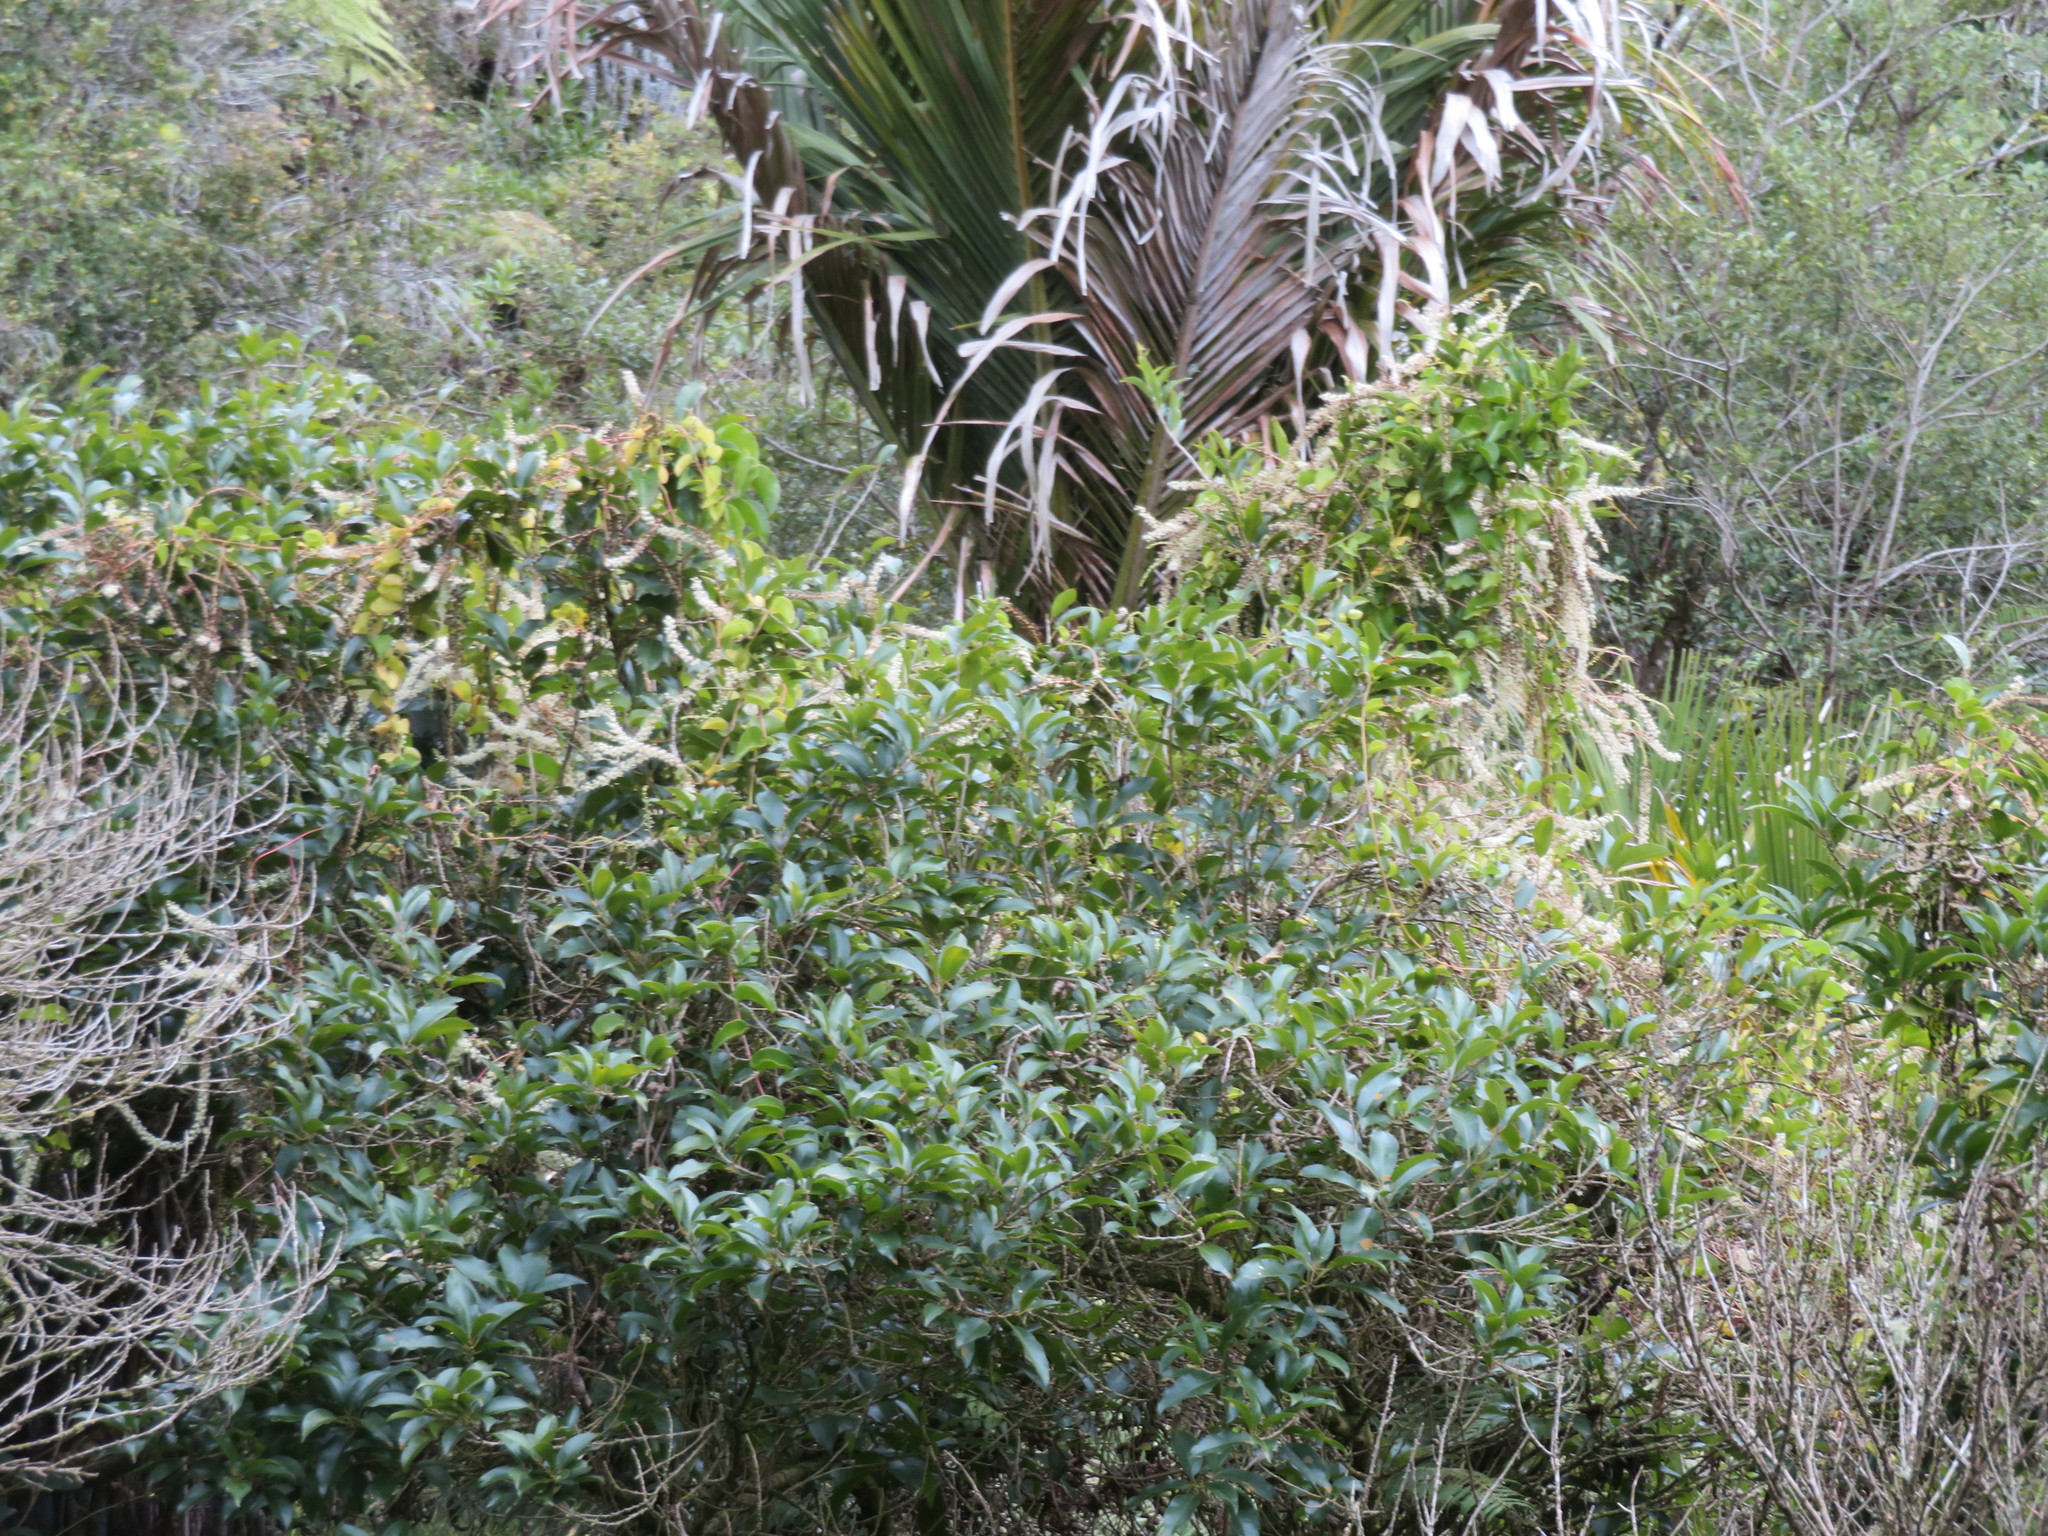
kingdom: Plantae
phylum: Tracheophyta
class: Magnoliopsida
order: Caryophyllales
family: Basellaceae
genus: Anredera
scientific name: Anredera cordifolia
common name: Heartleaf madeiravine
